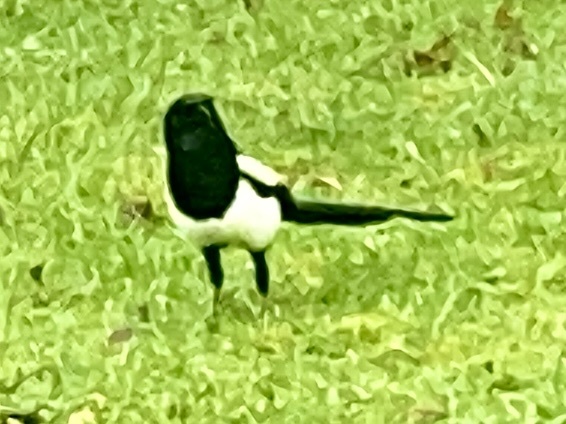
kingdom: Animalia
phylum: Chordata
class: Aves
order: Passeriformes
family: Corvidae
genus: Pica
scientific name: Pica pica
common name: Eurasian magpie
